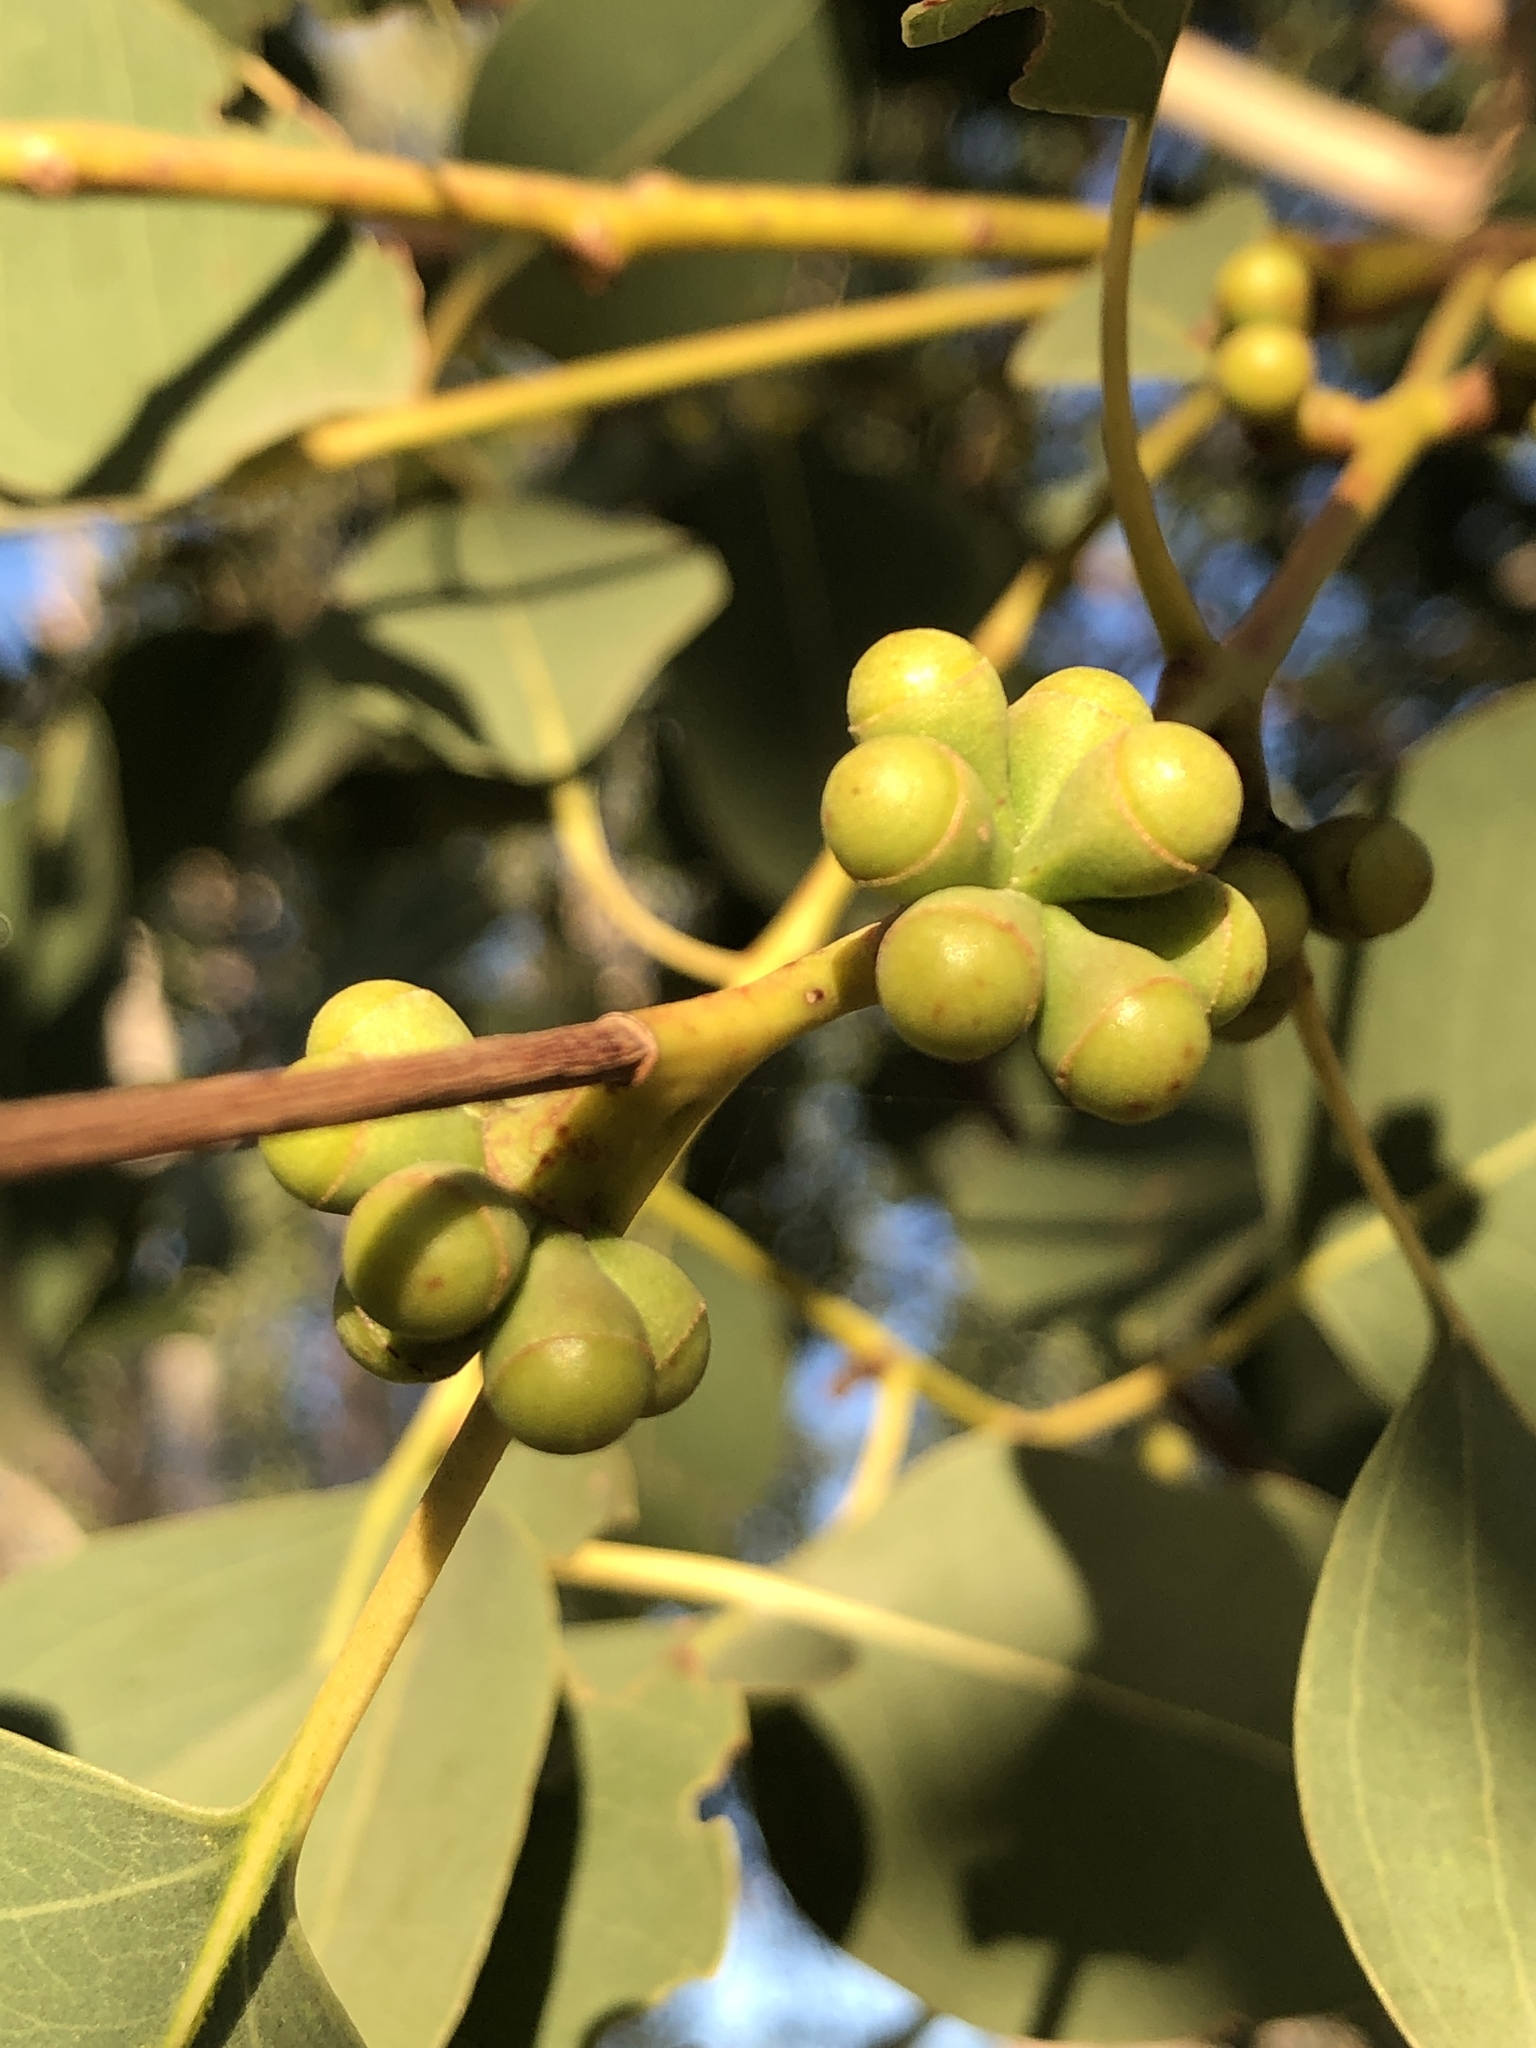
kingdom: Plantae
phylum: Tracheophyta
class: Magnoliopsida
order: Myrtales
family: Myrtaceae
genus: Eucalyptus
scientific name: Eucalyptus platyphylla
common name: Poplar-gum
